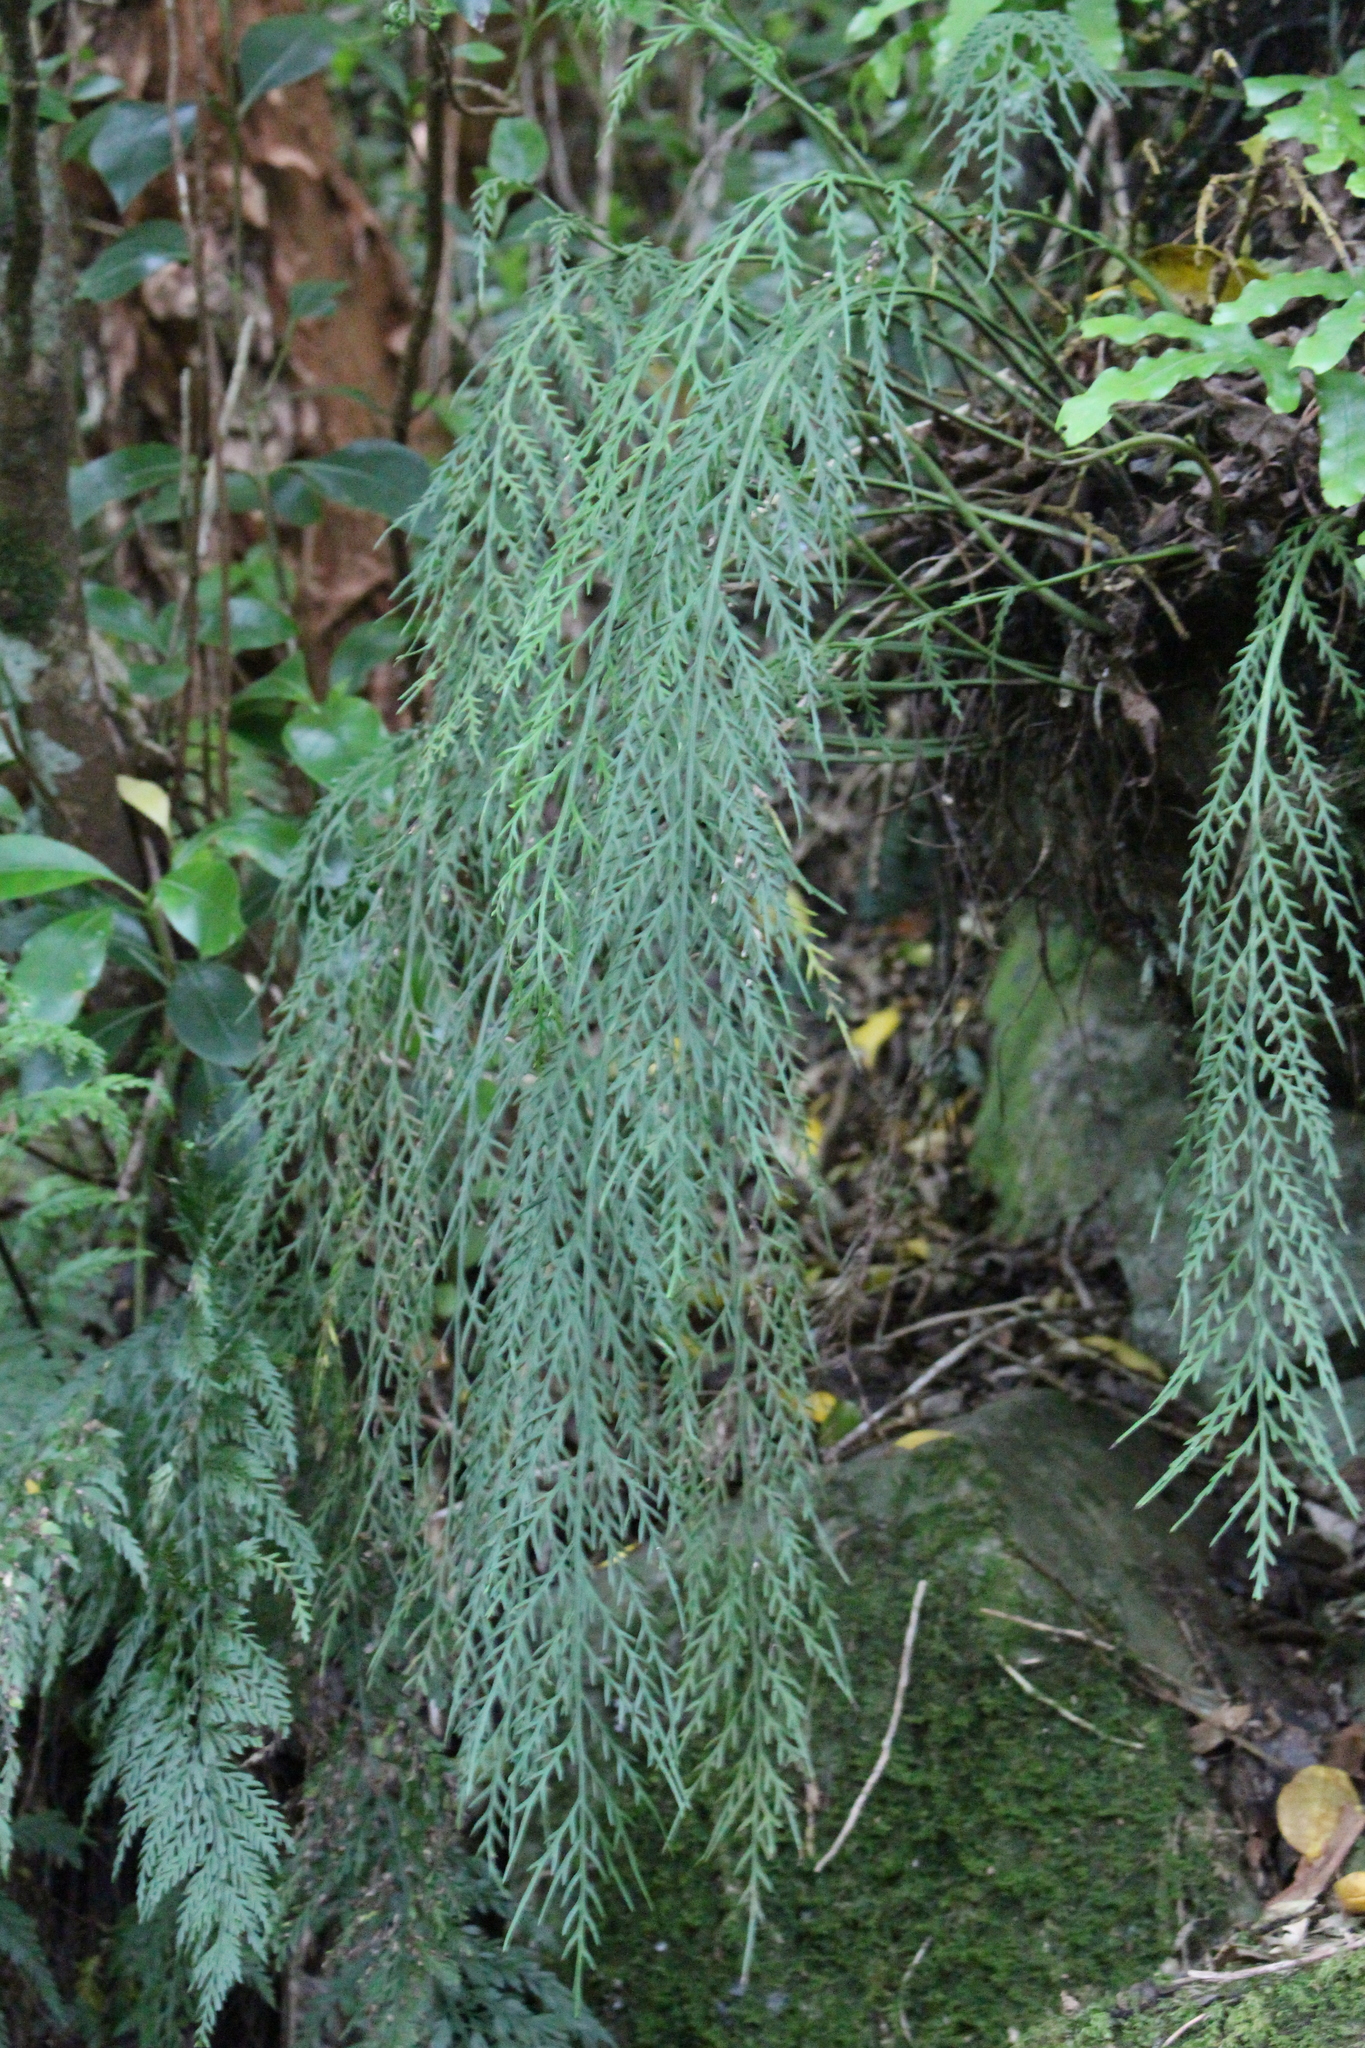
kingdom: Plantae
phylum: Tracheophyta
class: Polypodiopsida
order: Polypodiales
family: Aspleniaceae
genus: Asplenium
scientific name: Asplenium flaccidum
